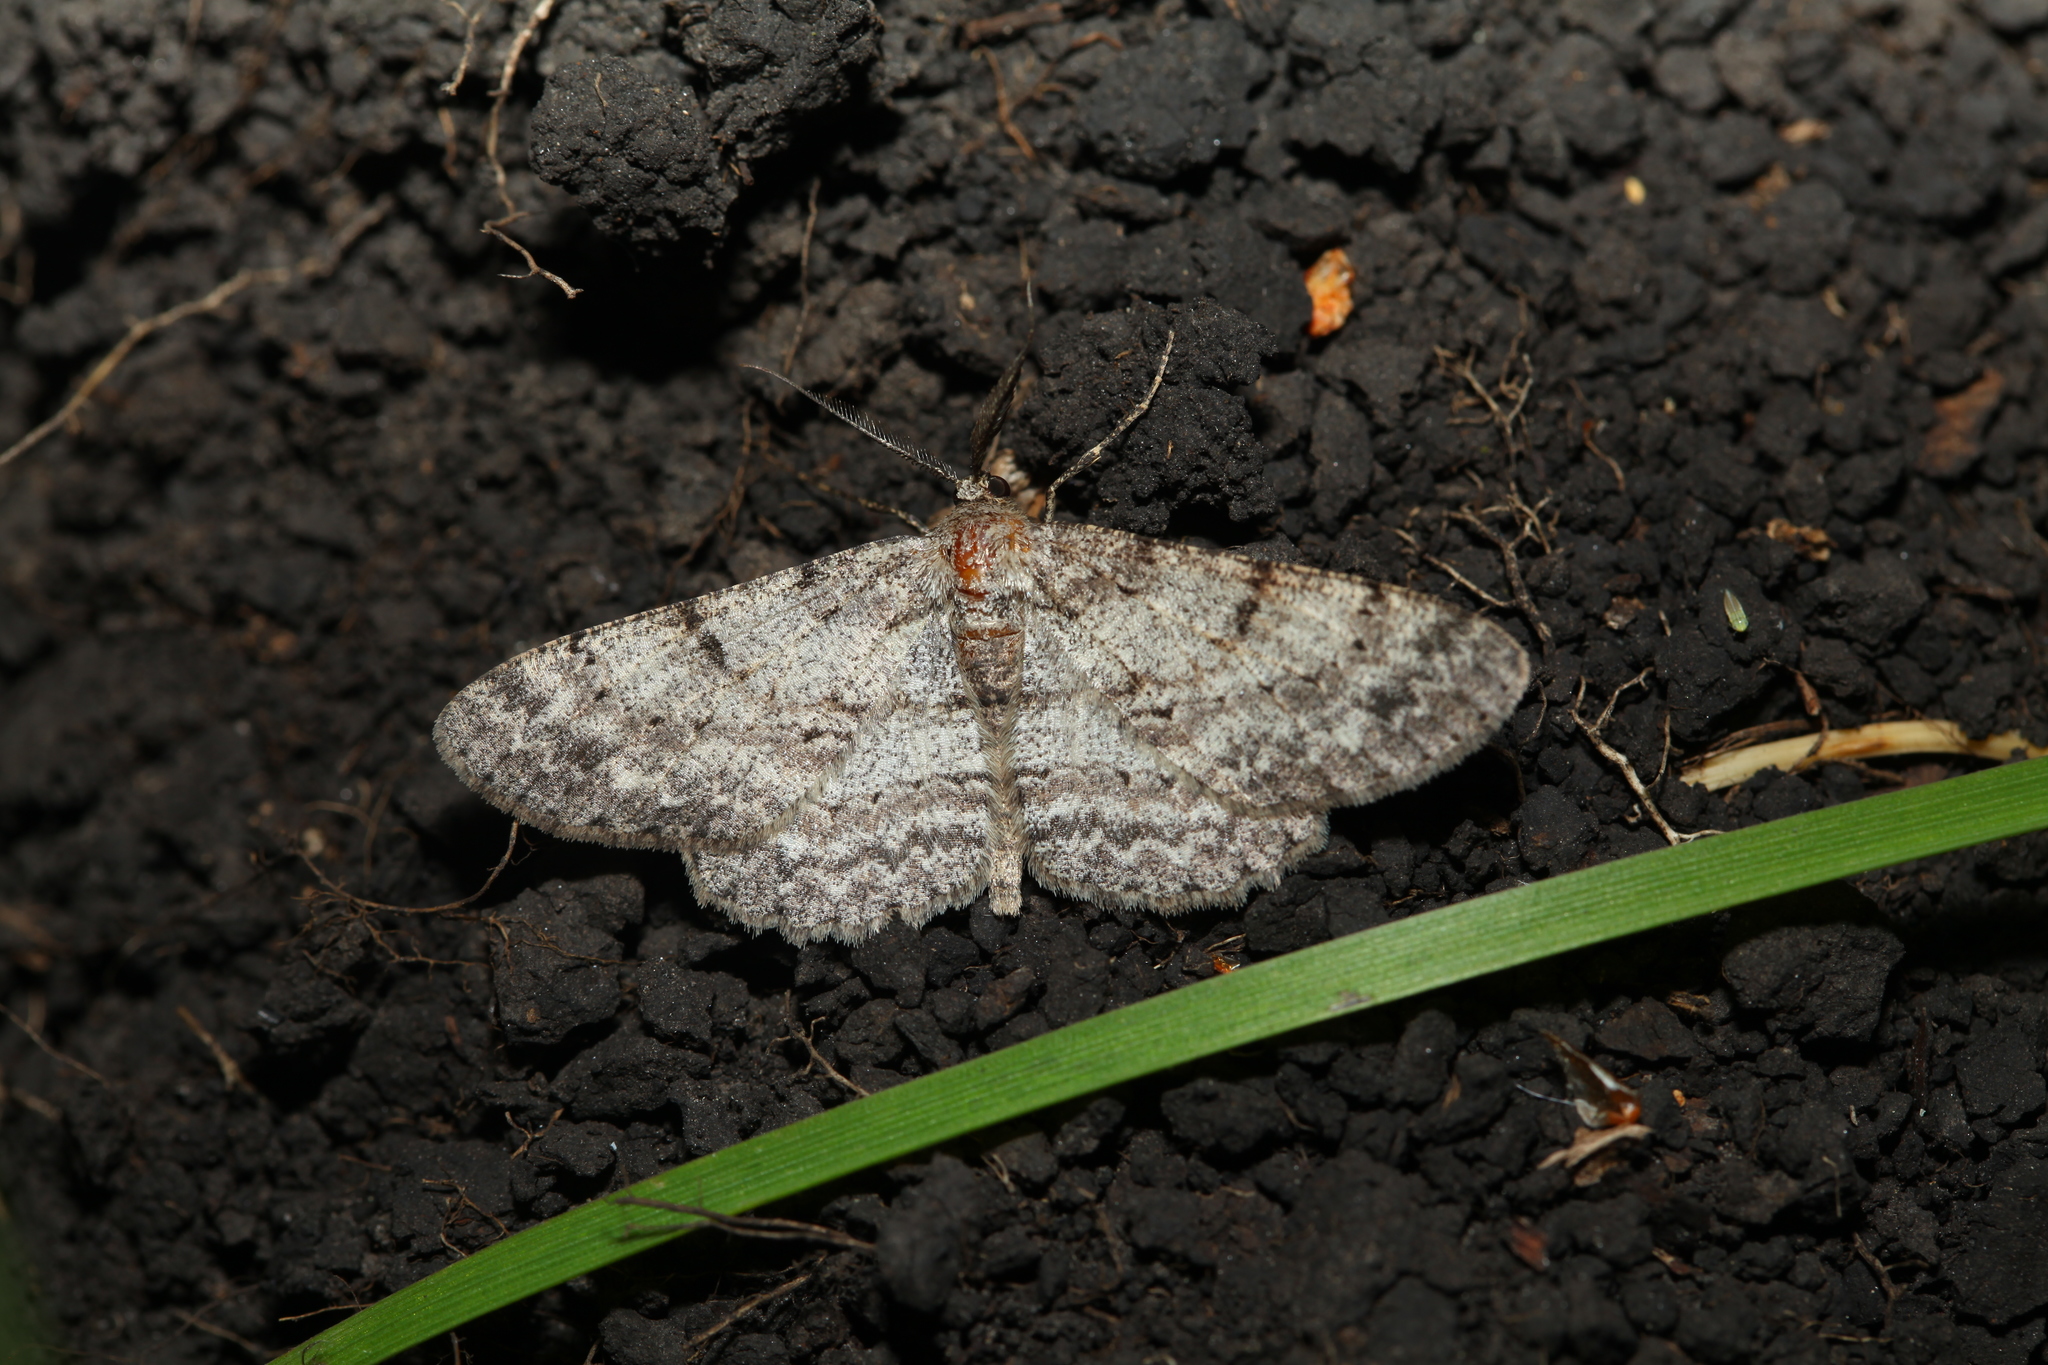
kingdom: Animalia
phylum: Arthropoda
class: Insecta
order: Lepidoptera
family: Geometridae
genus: Hypomecis
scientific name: Hypomecis punctinalis
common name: Pale oak beauty
